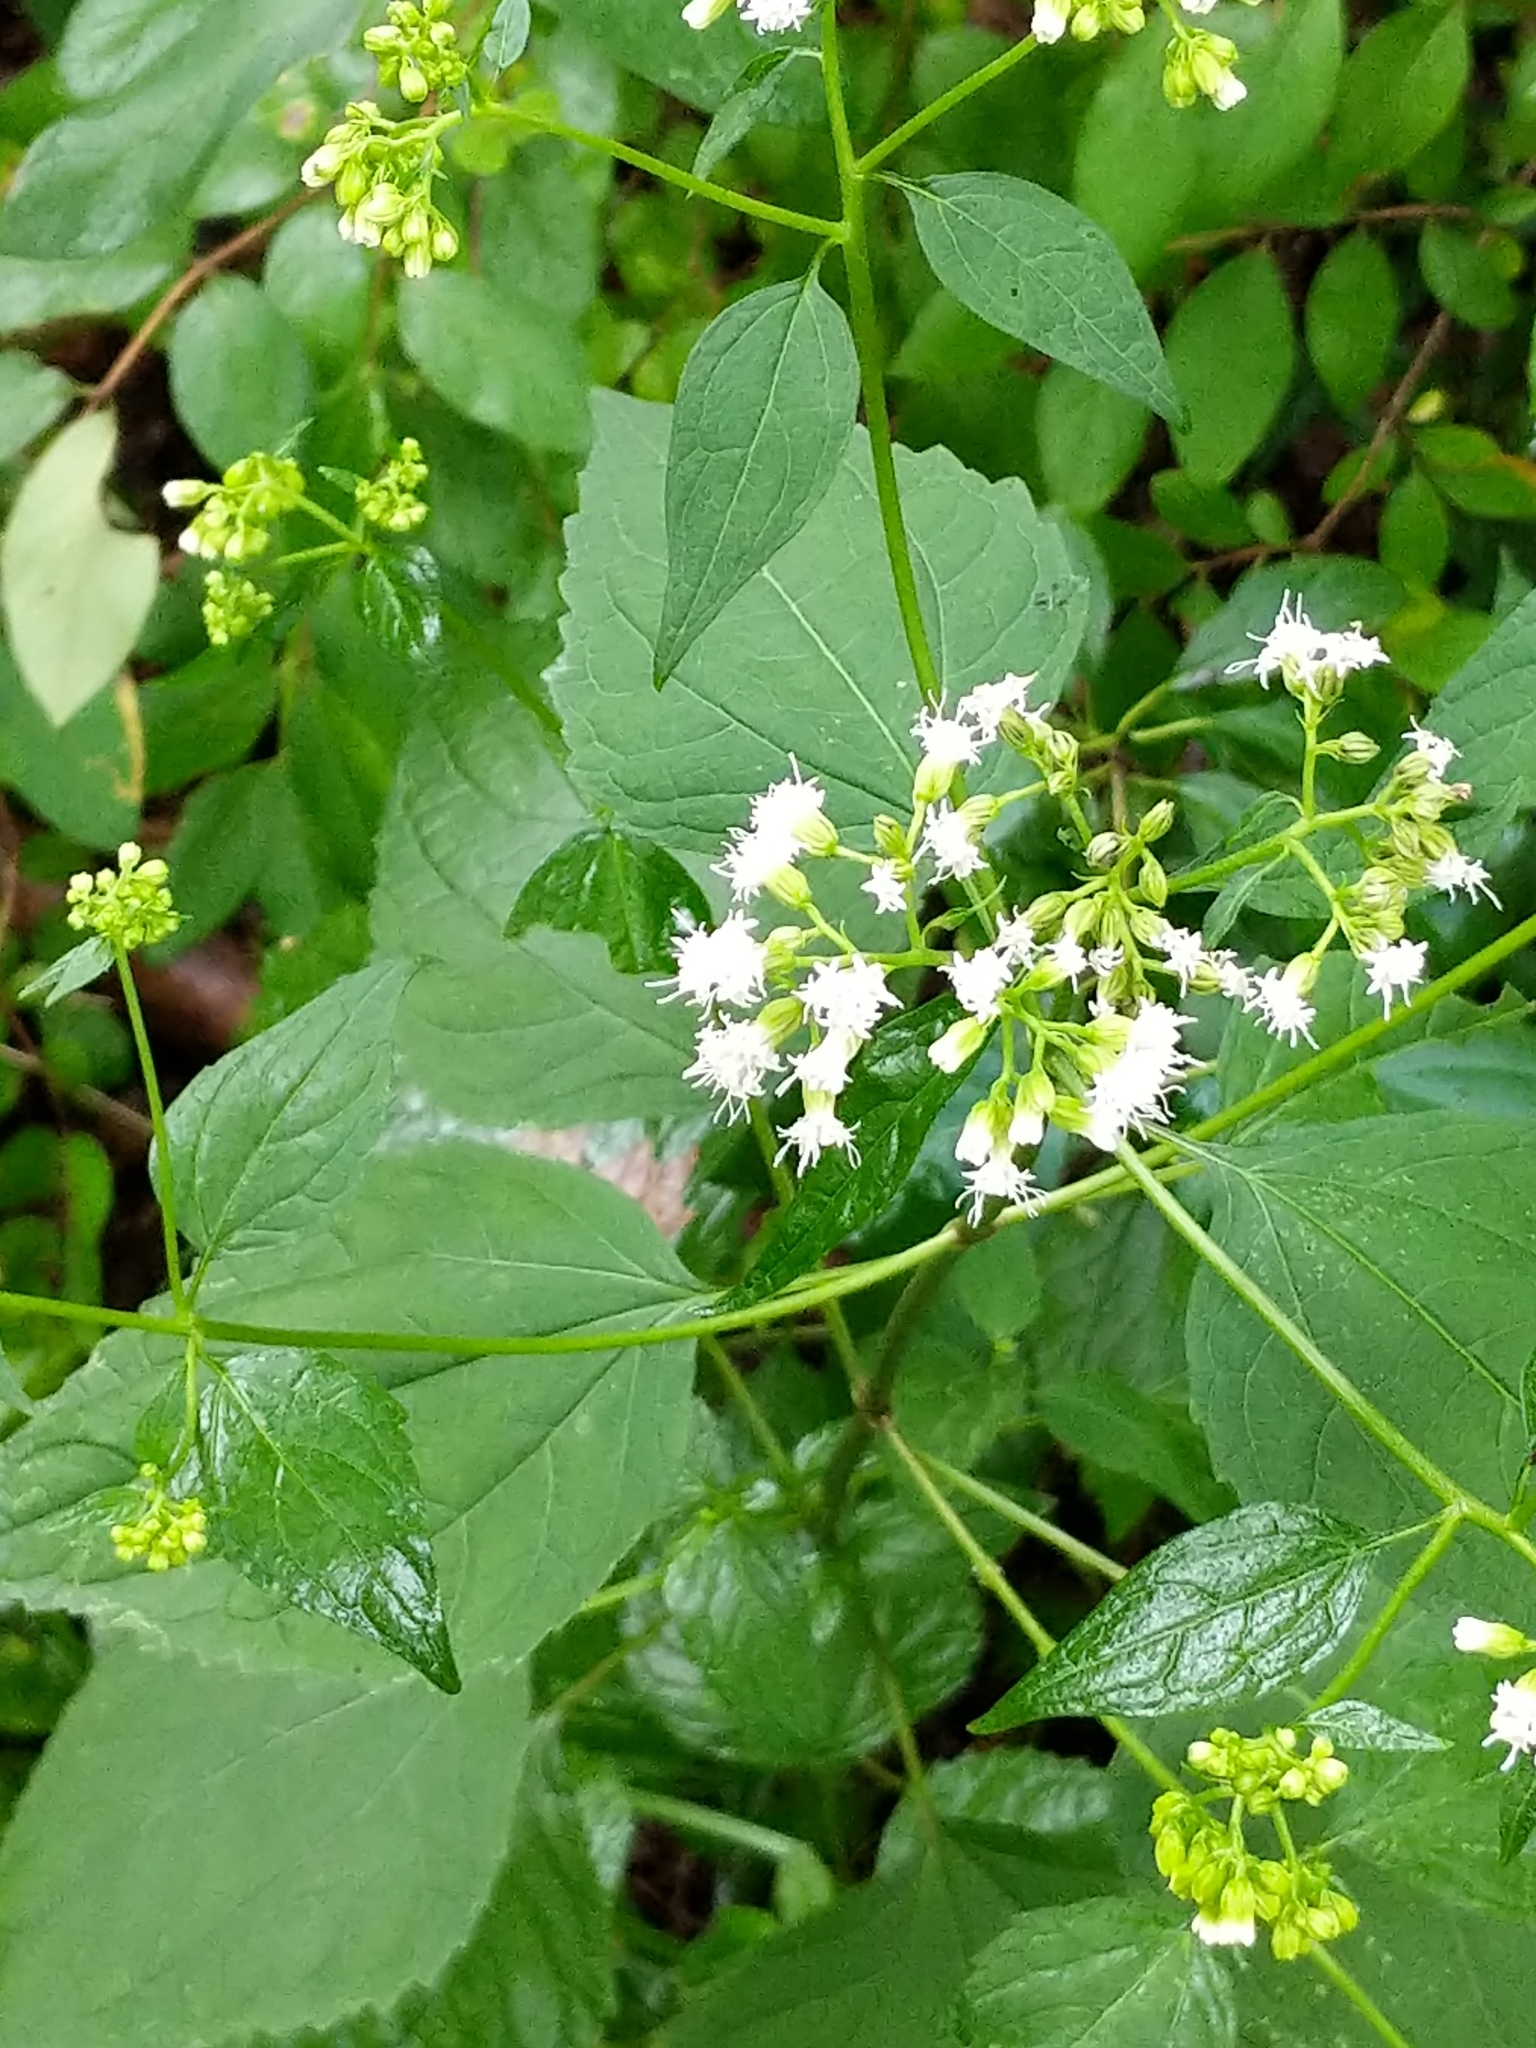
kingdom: Plantae
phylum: Tracheophyta
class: Magnoliopsida
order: Asterales
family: Asteraceae
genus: Ageratina
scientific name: Ageratina altissima
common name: White snakeroot
